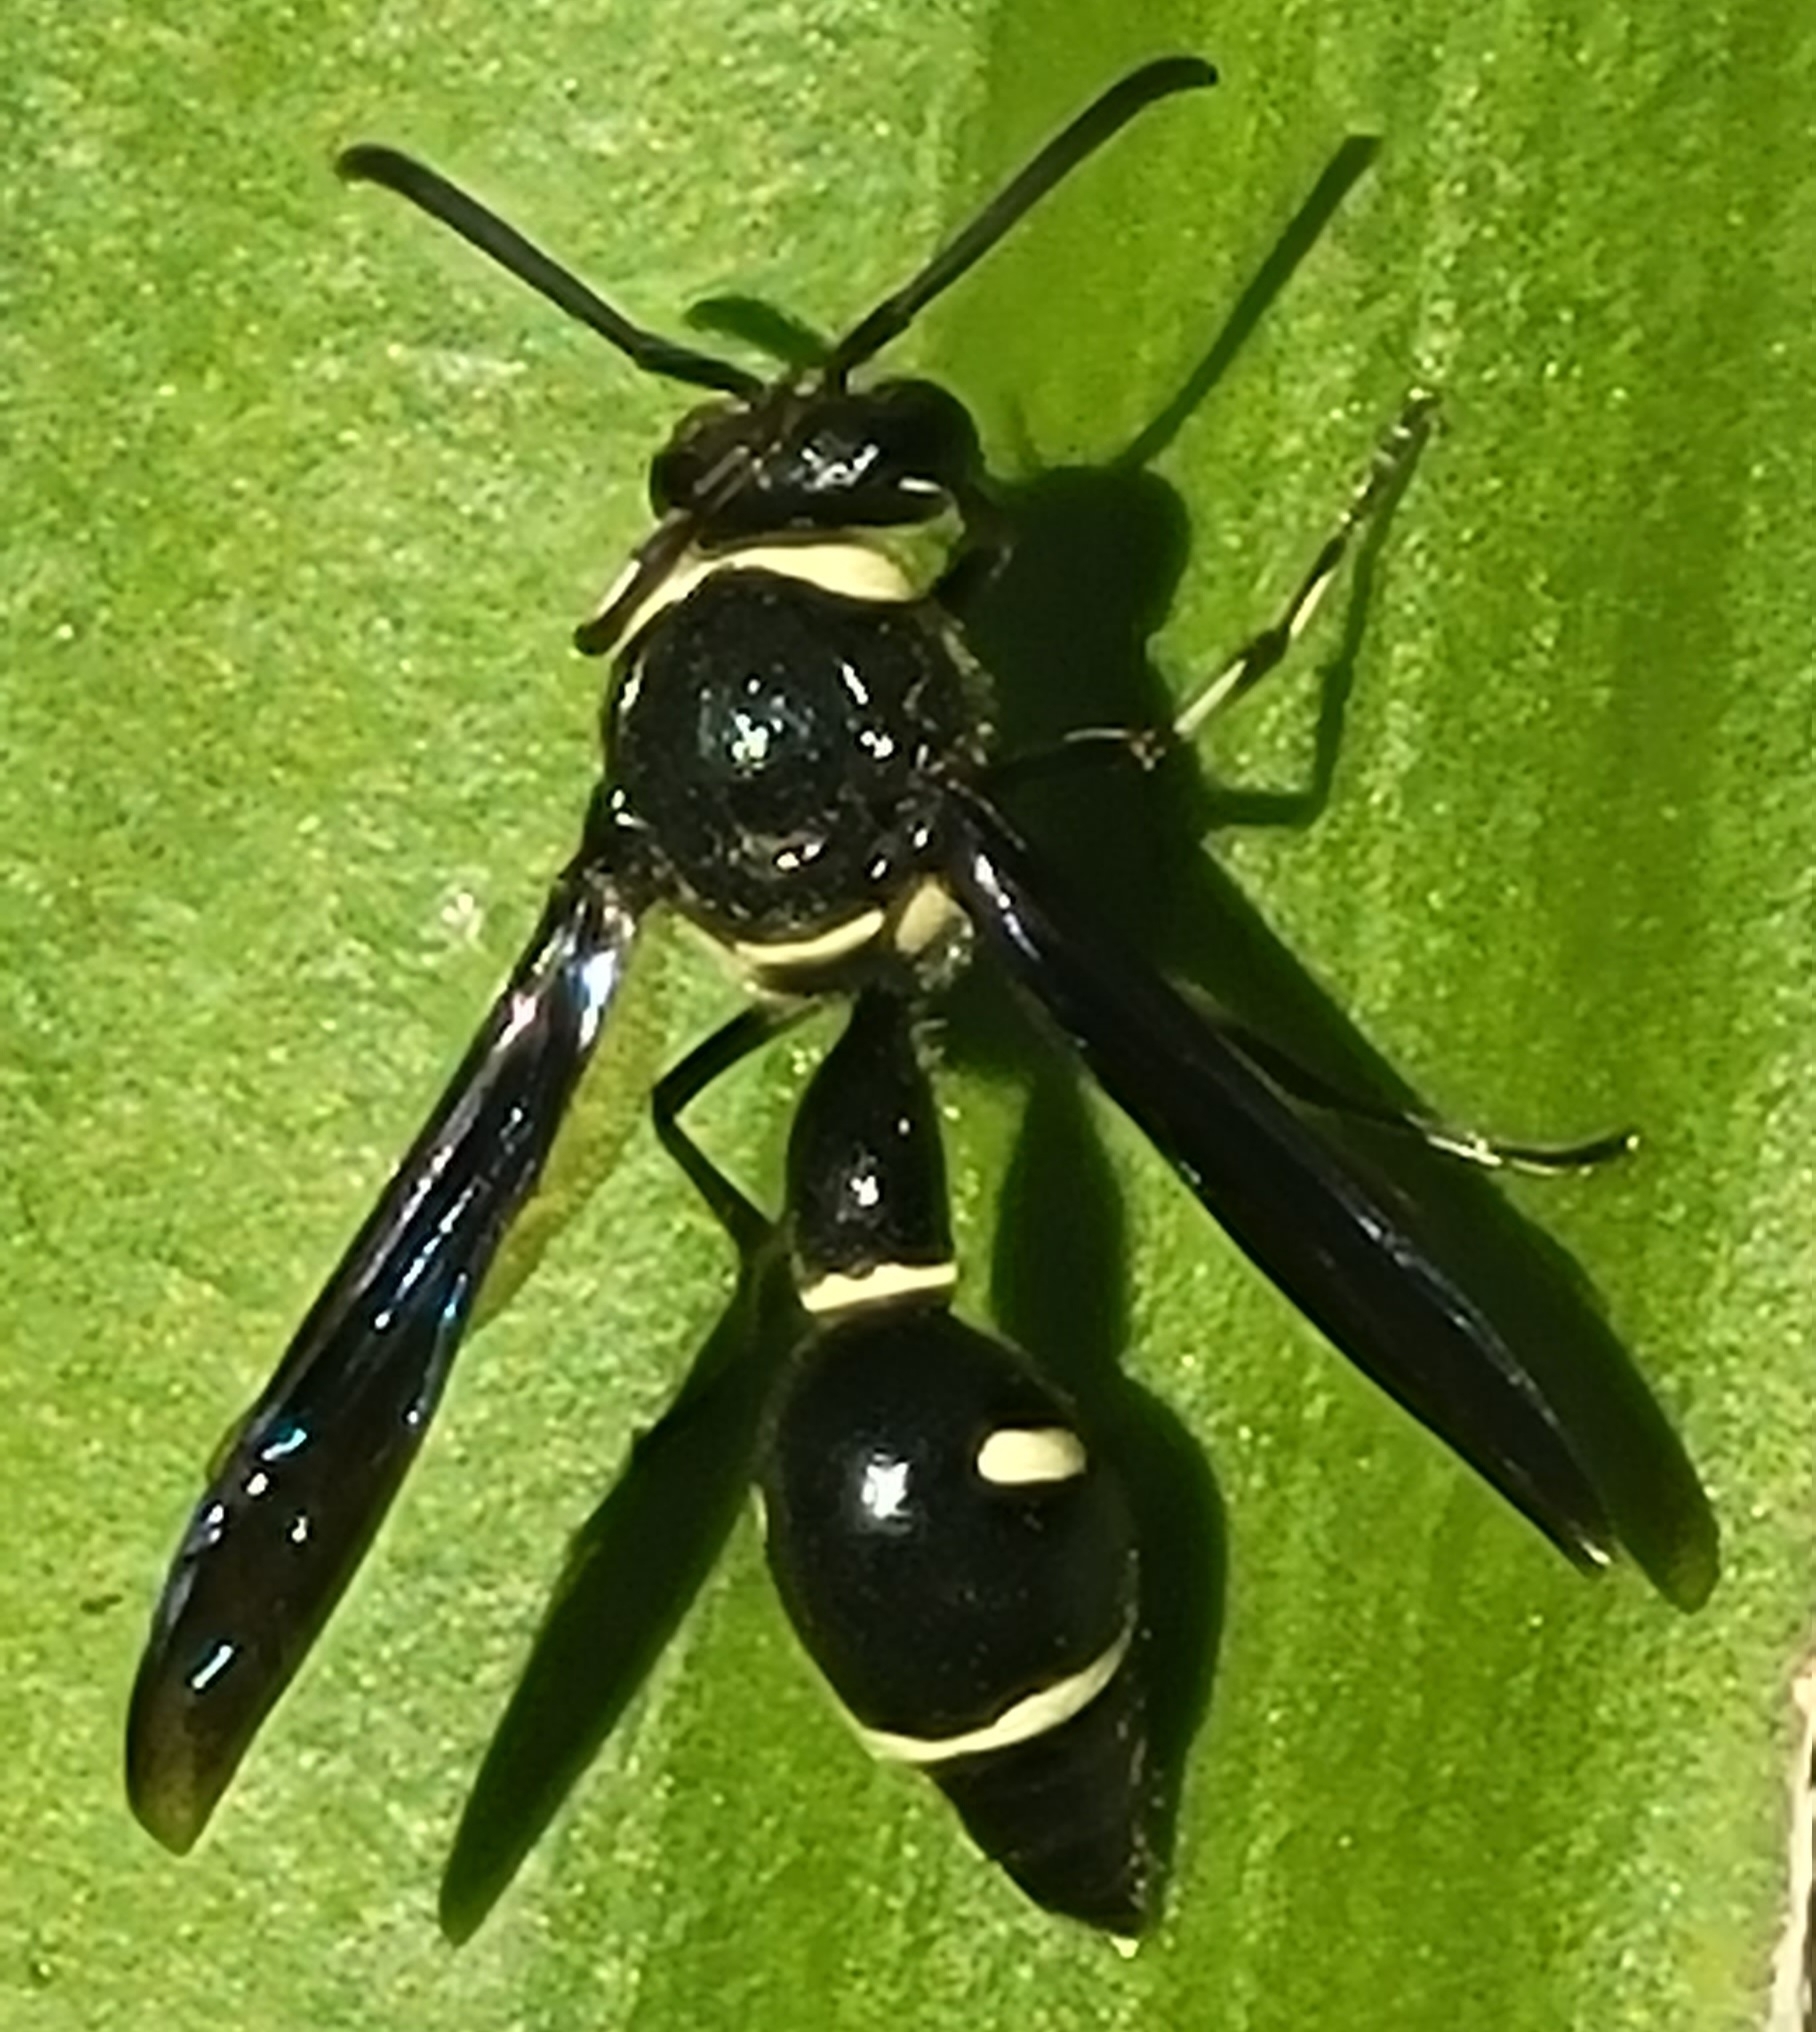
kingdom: Animalia
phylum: Arthropoda
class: Insecta
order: Hymenoptera
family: Vespidae
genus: Eumenes
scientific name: Eumenes fraternus
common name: Fraternal potter wasp
